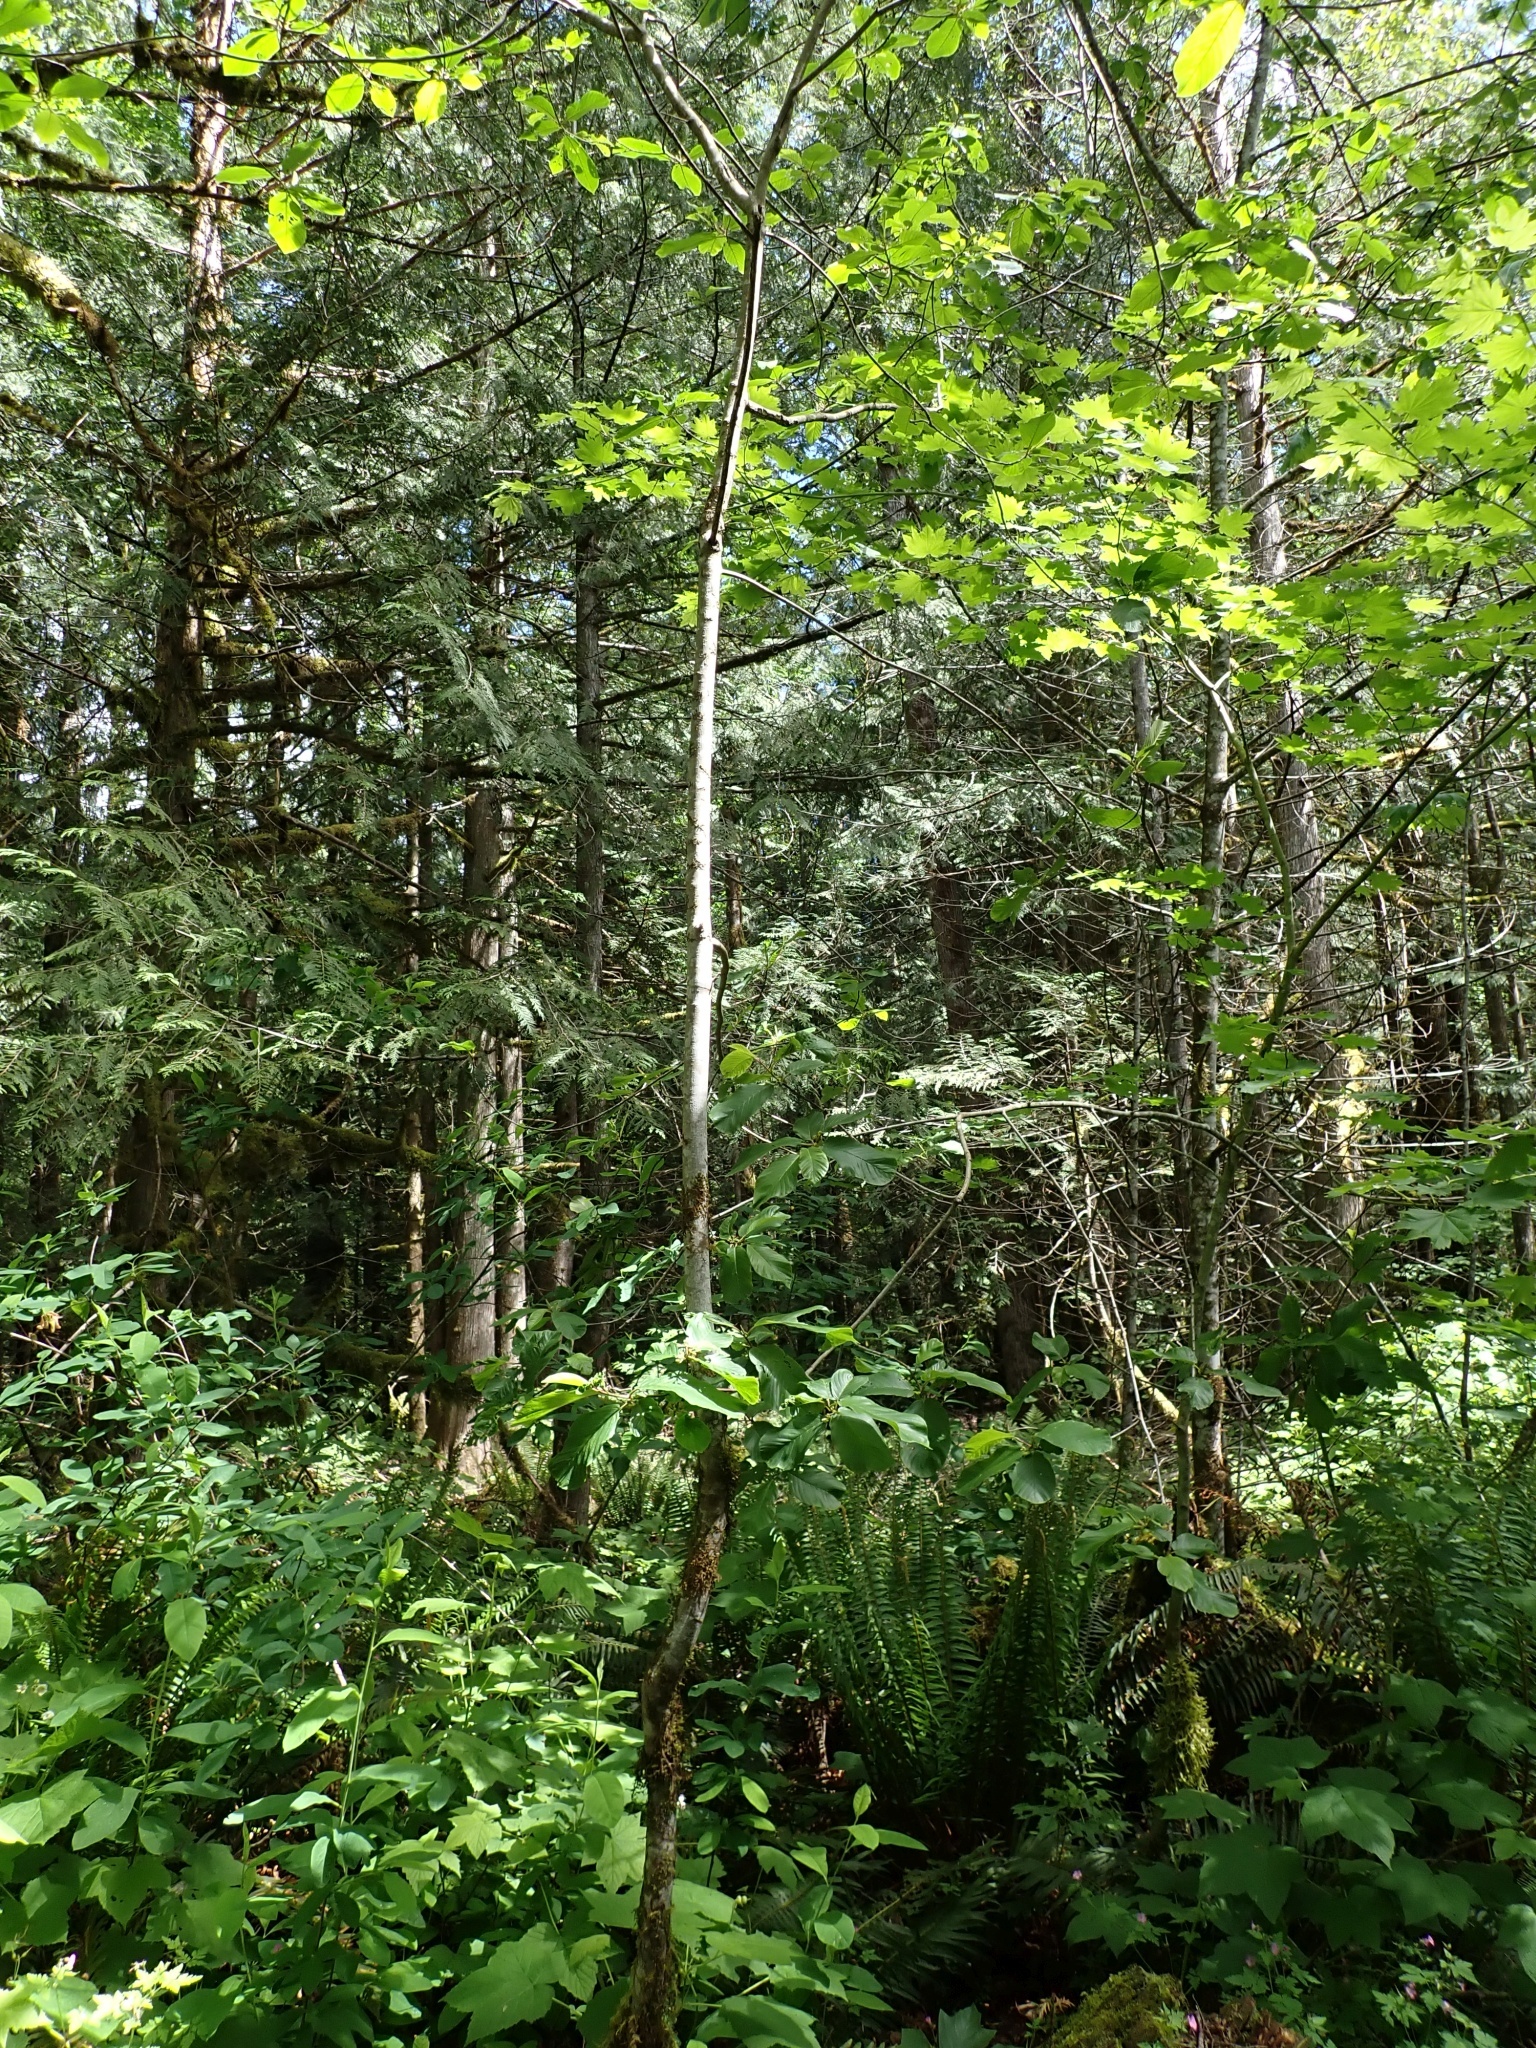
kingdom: Plantae
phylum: Tracheophyta
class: Magnoliopsida
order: Rosales
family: Rhamnaceae
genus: Frangula
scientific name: Frangula purshiana
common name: Cascara buckthorn
